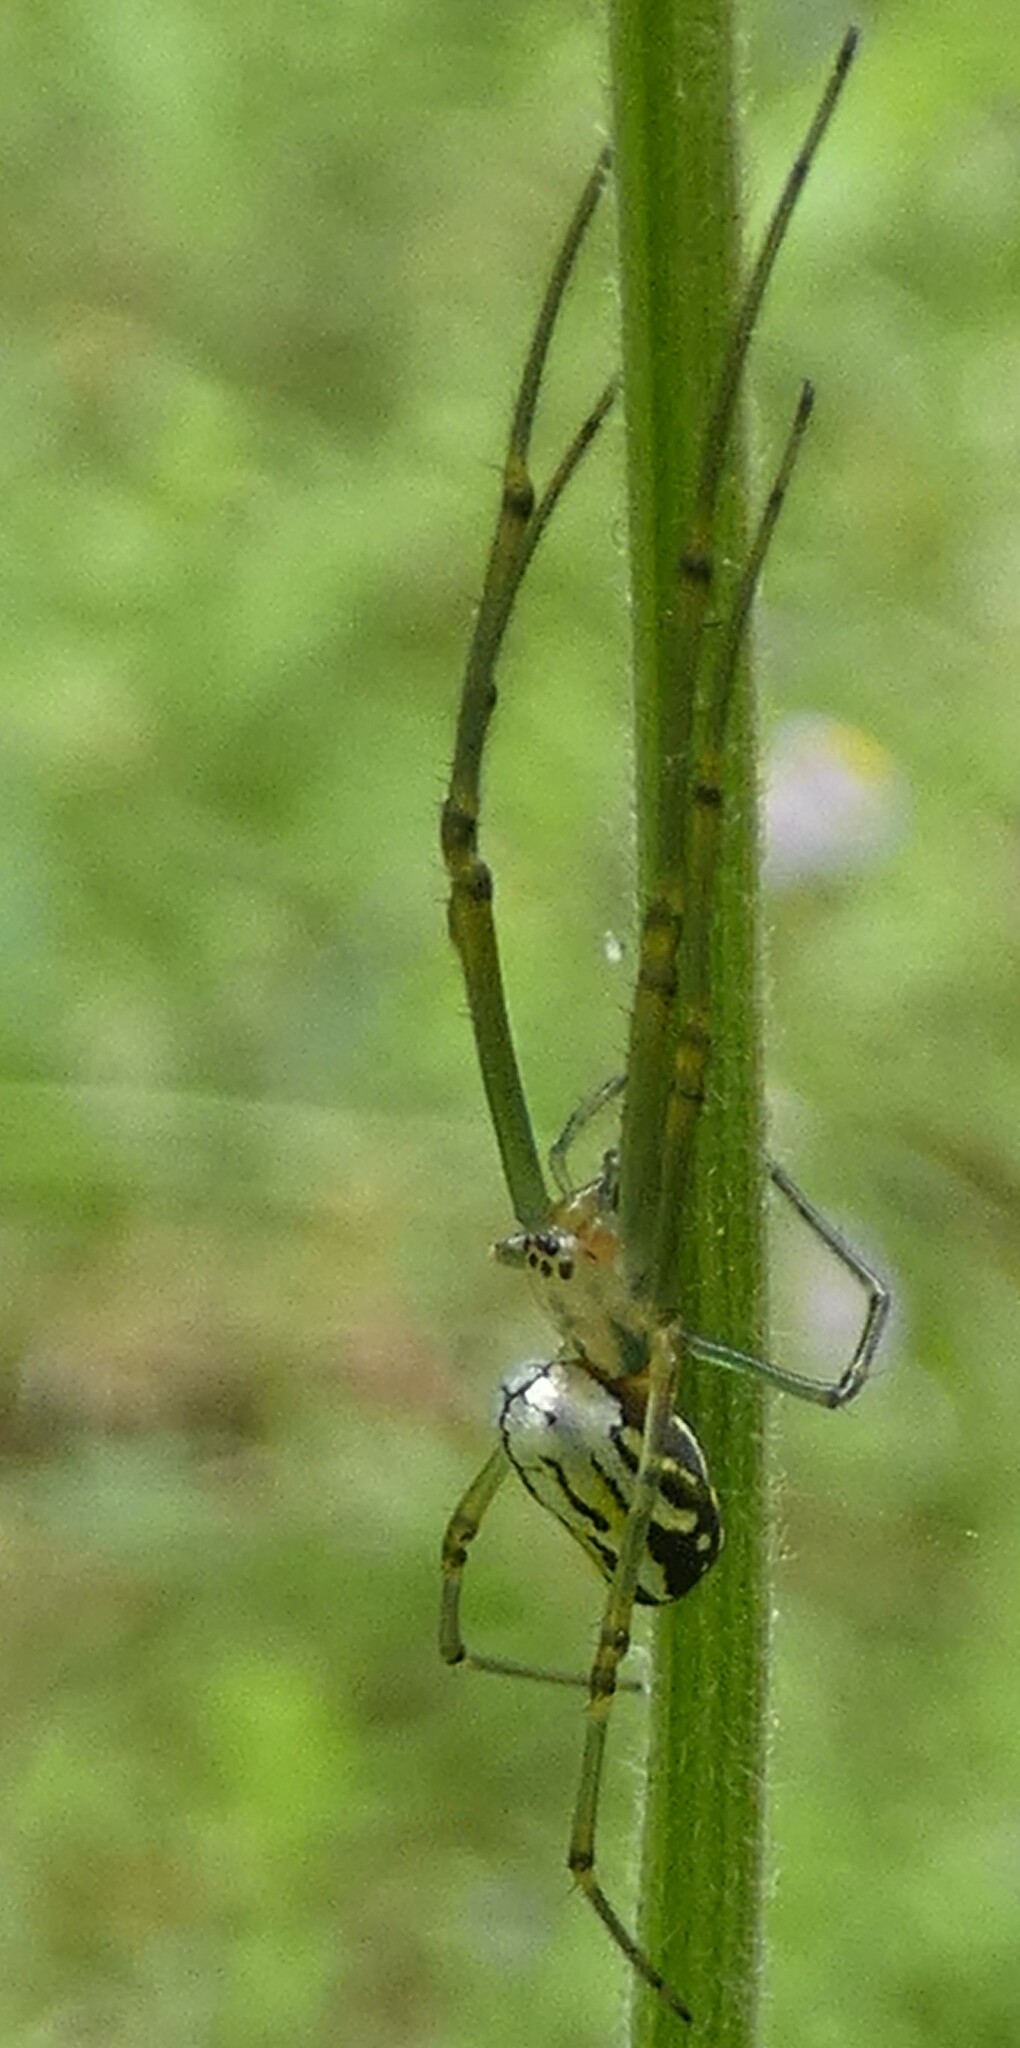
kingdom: Animalia
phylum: Arthropoda
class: Arachnida
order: Araneae
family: Tetragnathidae
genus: Leucauge
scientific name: Leucauge argyra
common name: Longjawed orb weavers
